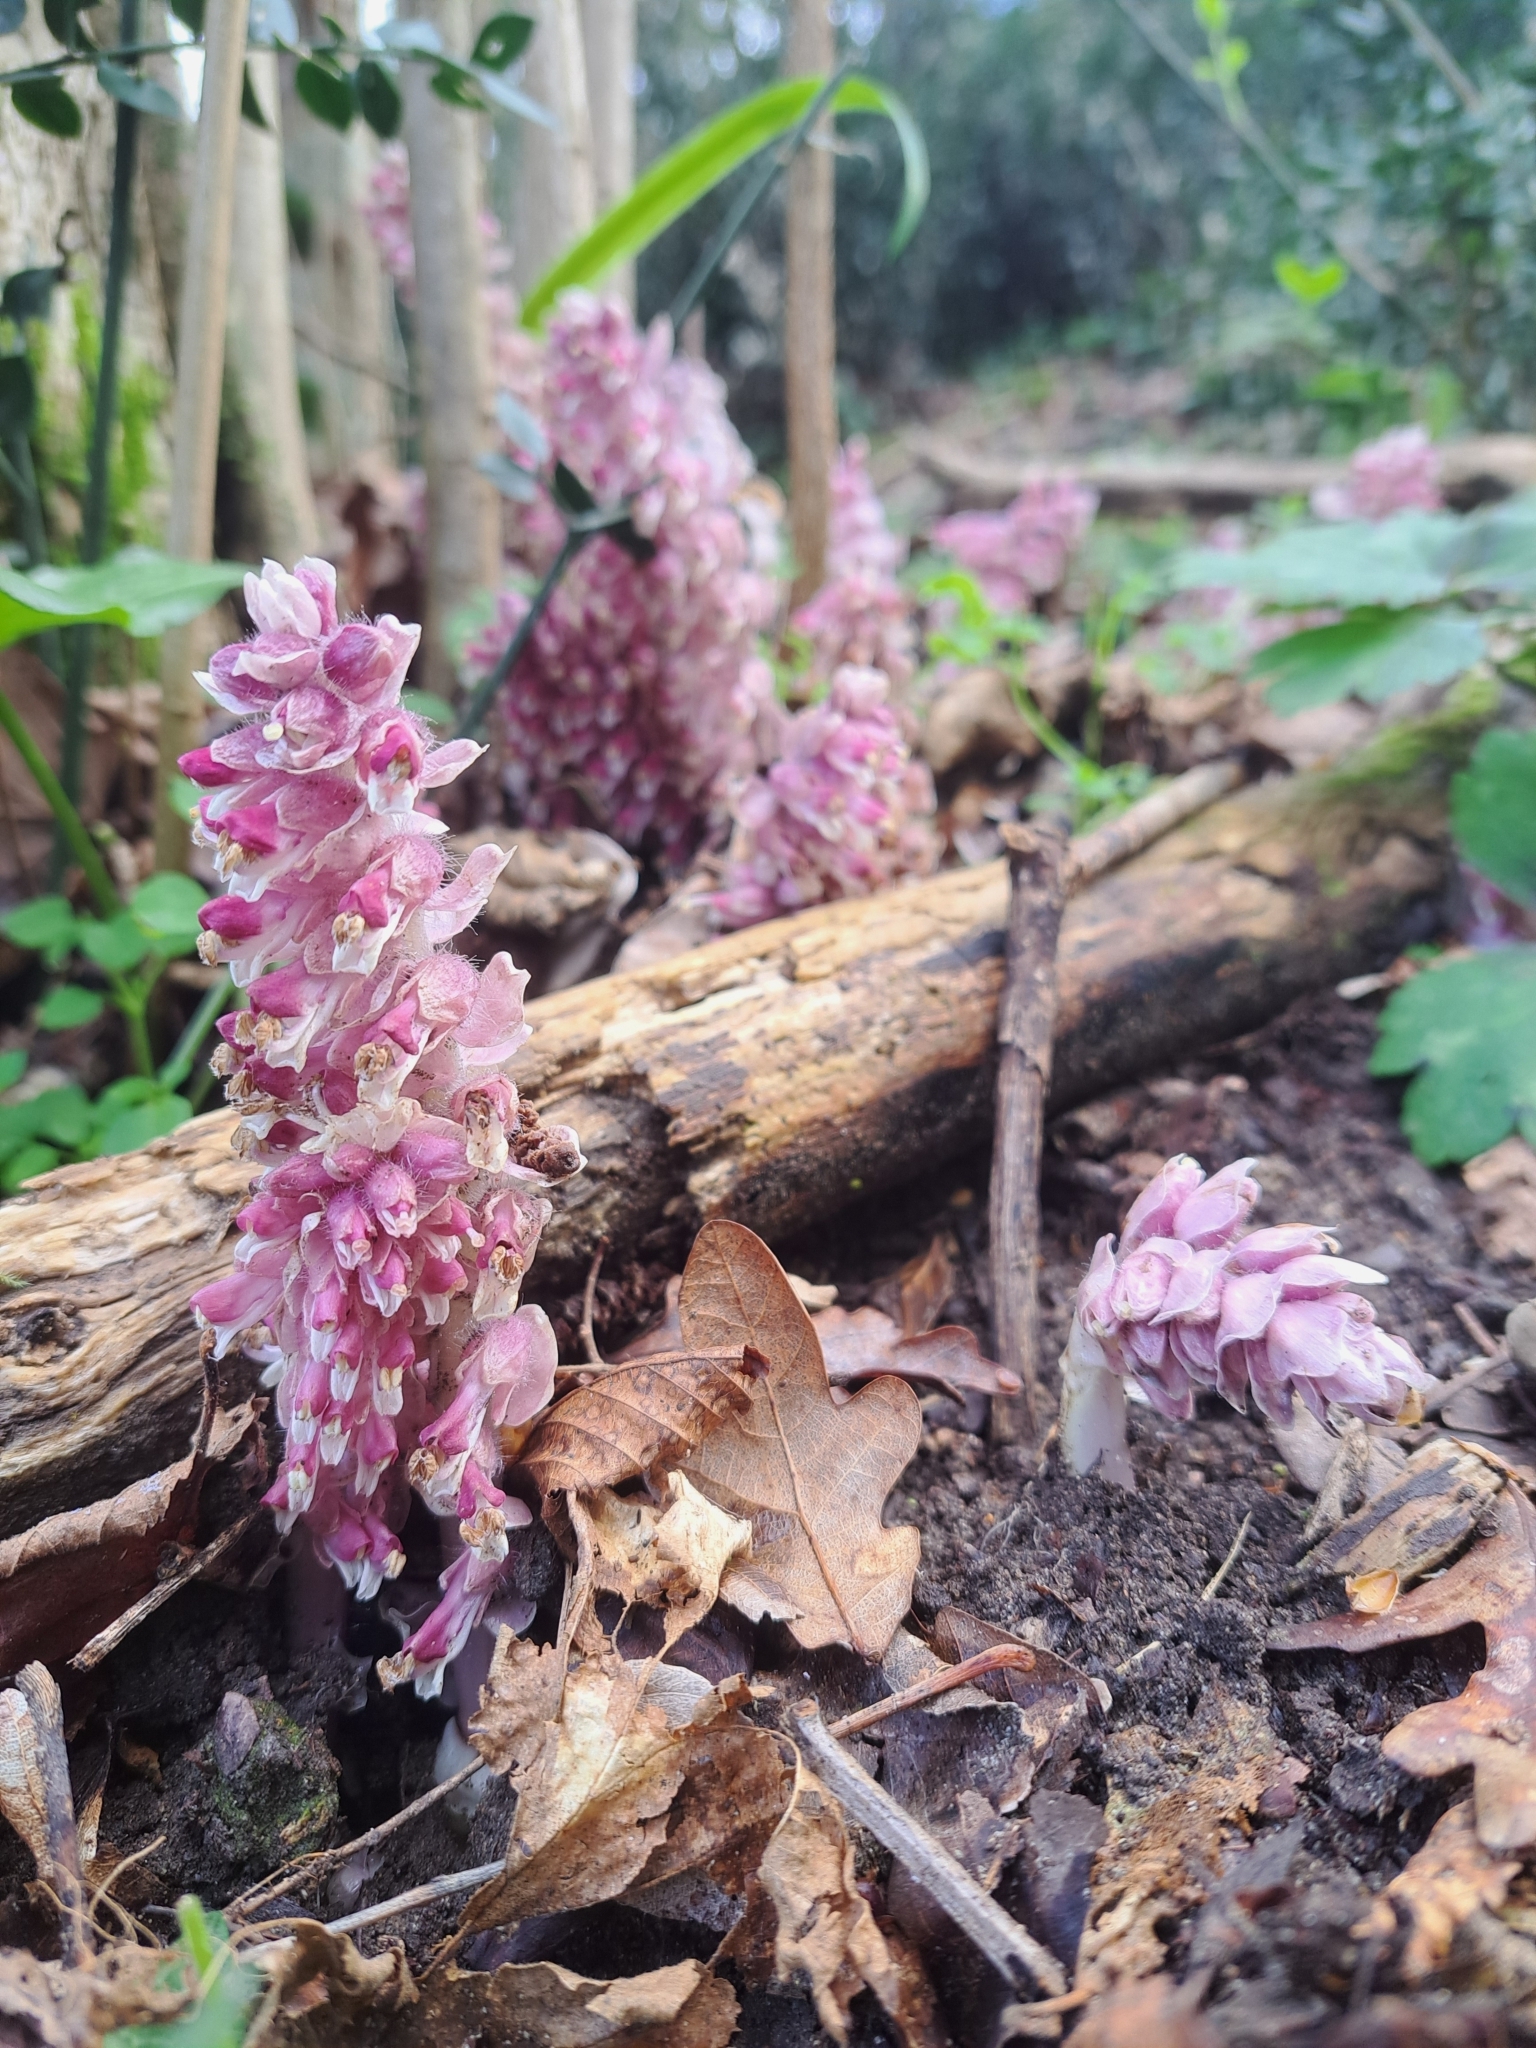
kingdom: Plantae
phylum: Tracheophyta
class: Magnoliopsida
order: Lamiales
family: Orobanchaceae
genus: Lathraea
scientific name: Lathraea squamaria
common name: Toothwort
